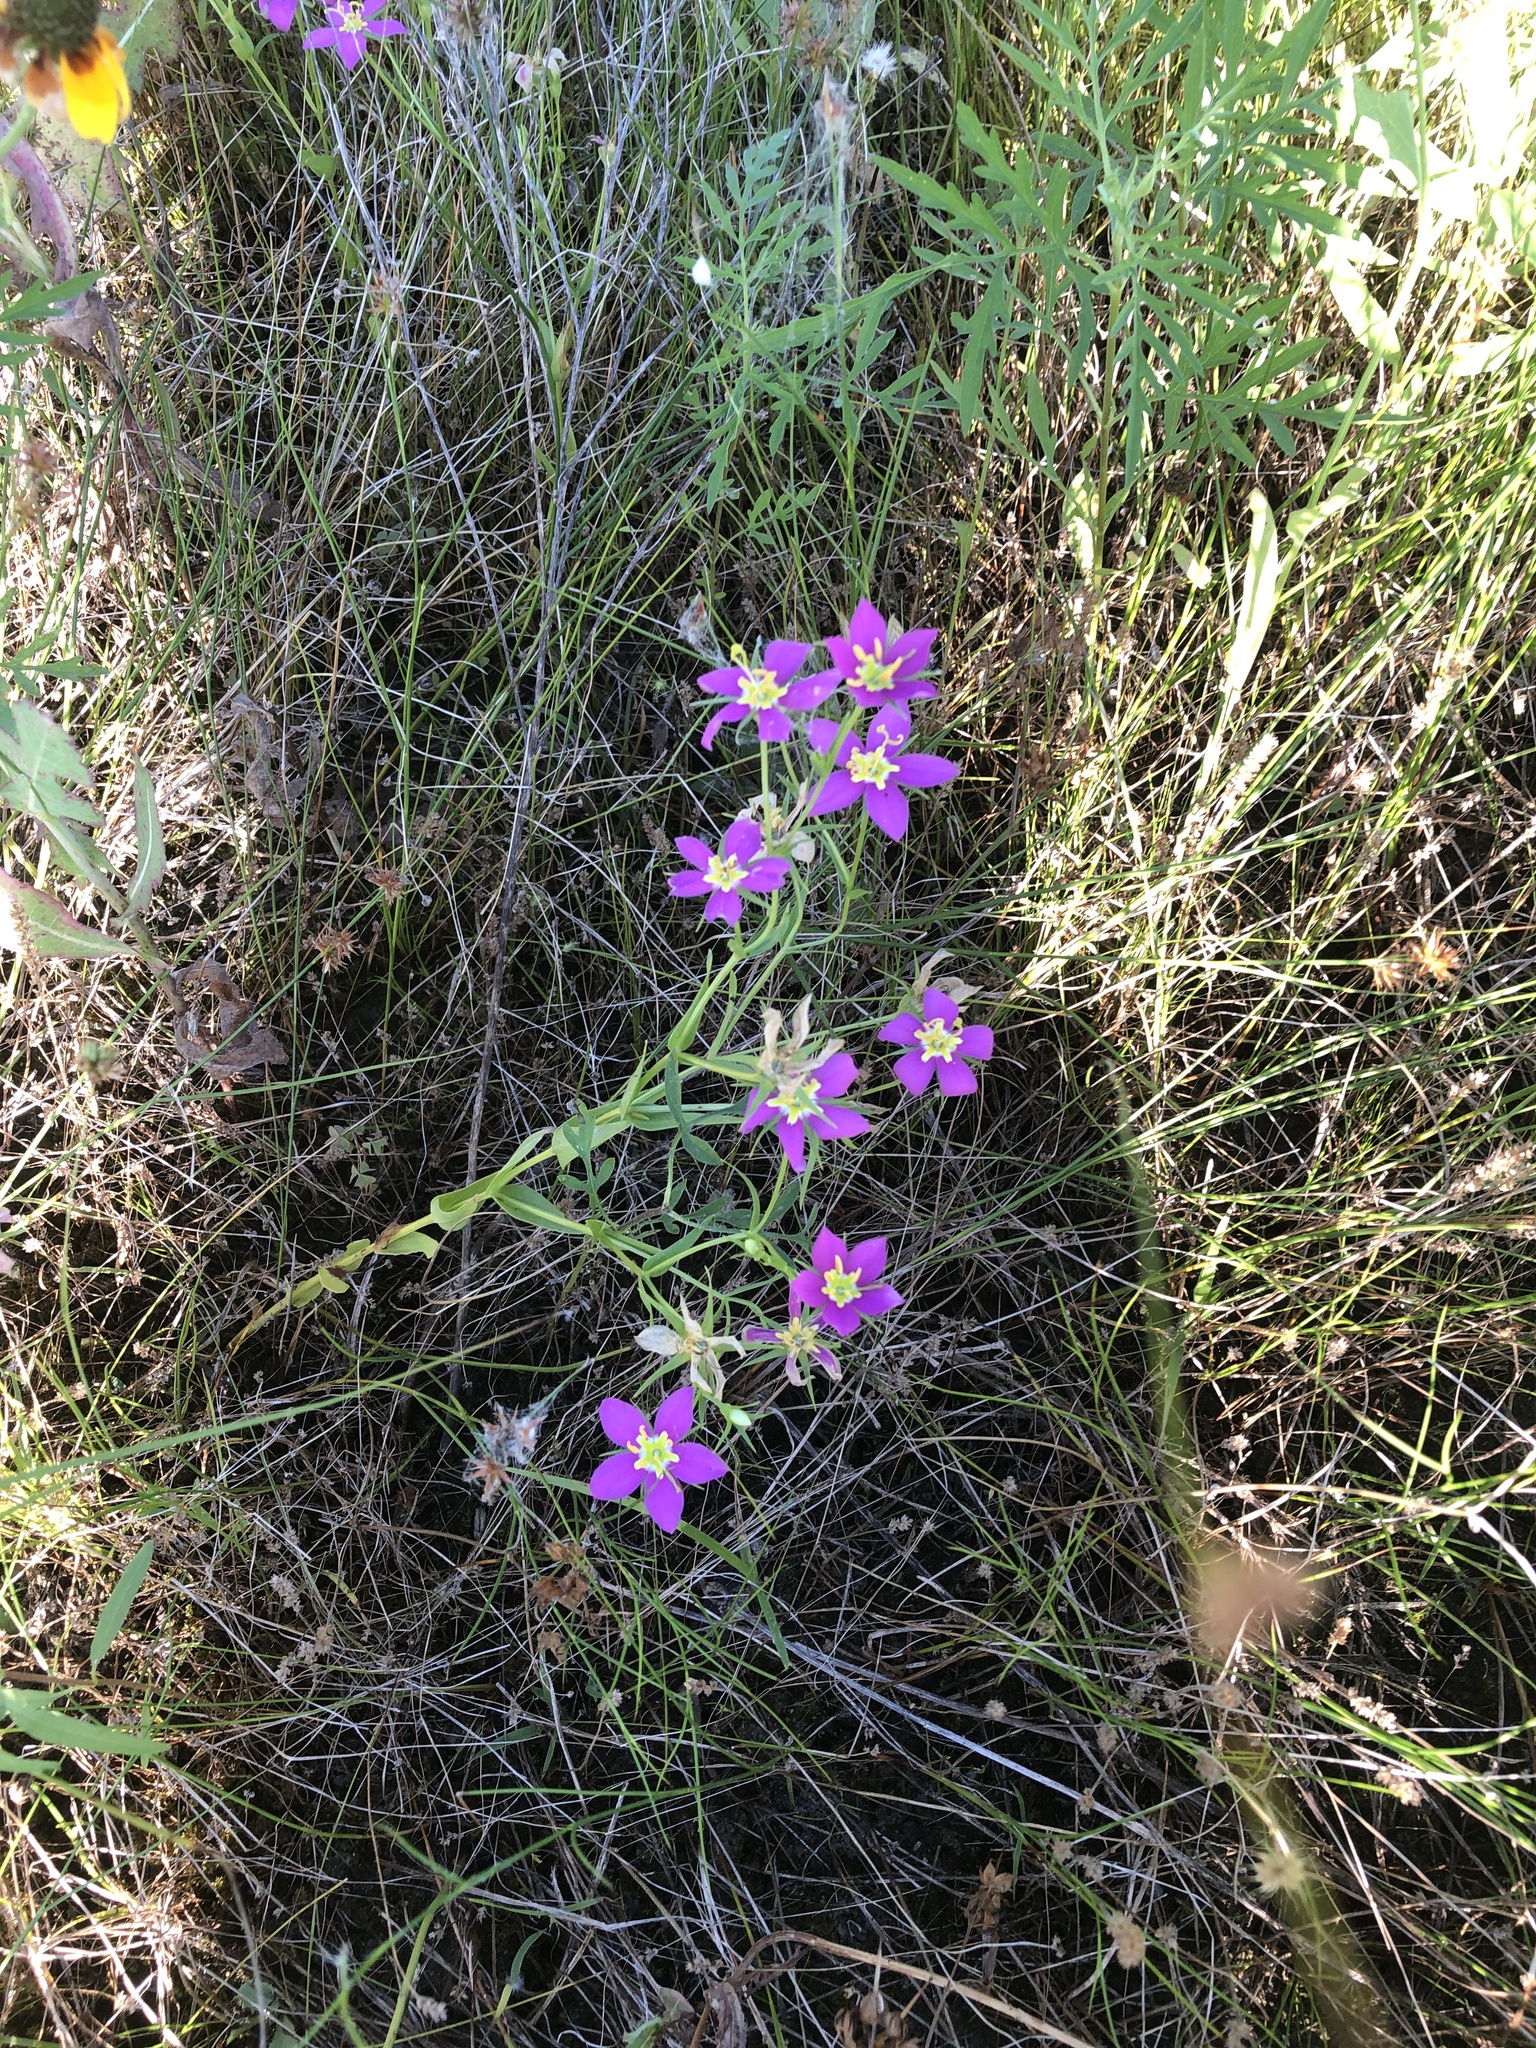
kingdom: Plantae
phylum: Tracheophyta
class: Magnoliopsida
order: Gentianales
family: Gentianaceae
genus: Sabatia
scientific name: Sabatia campestris
